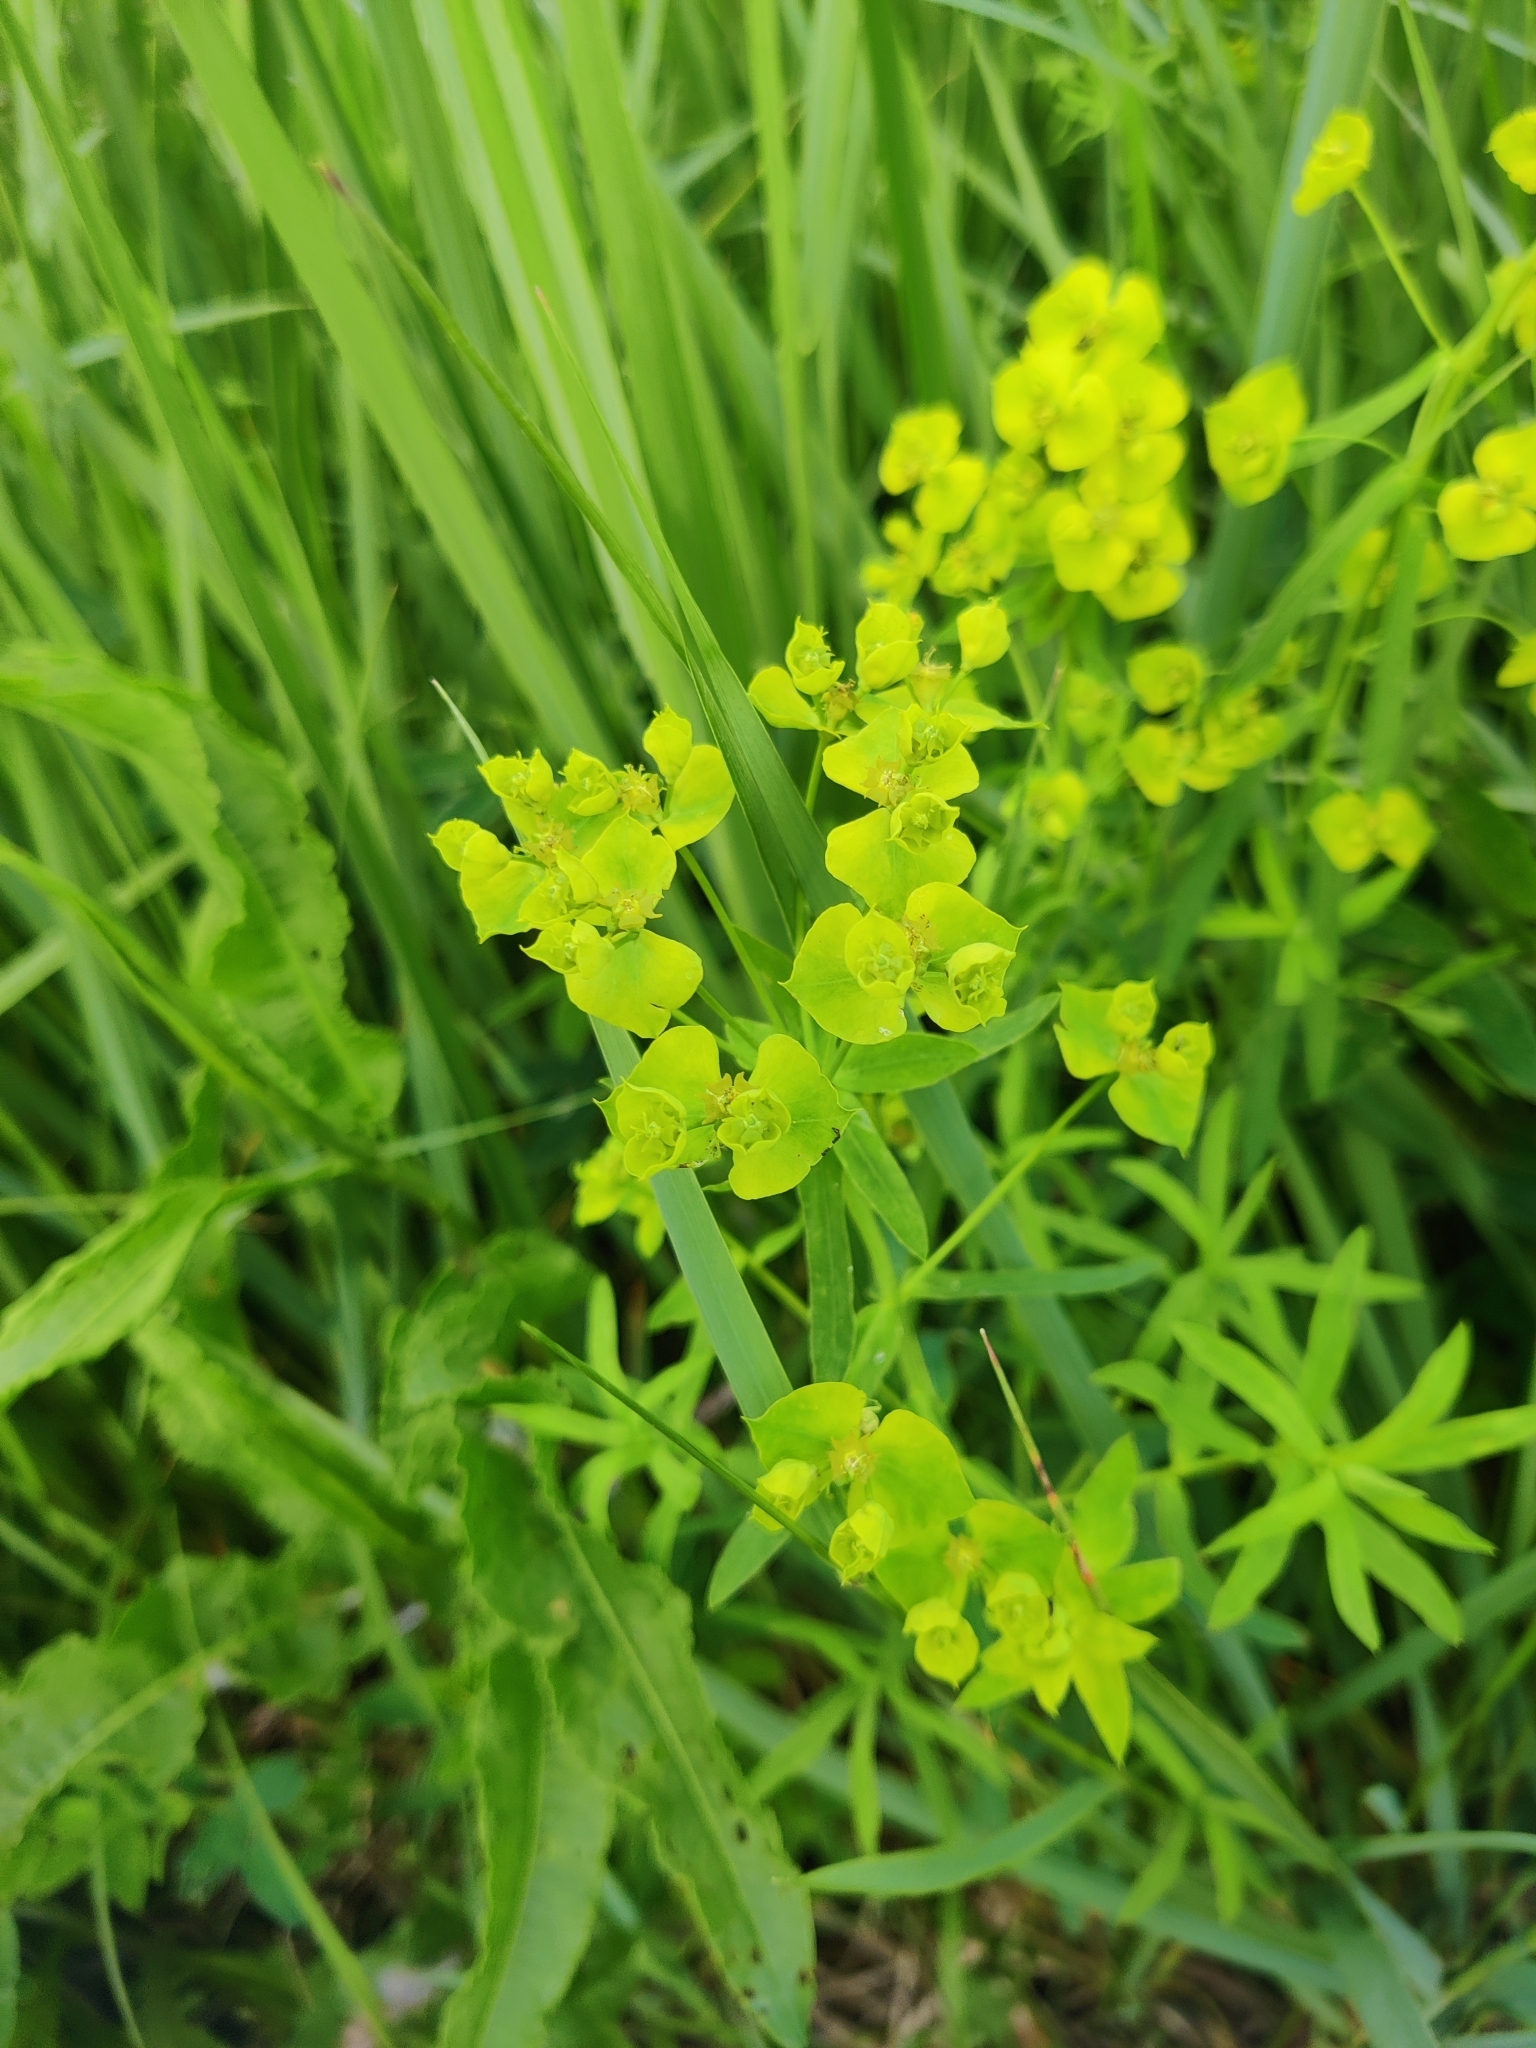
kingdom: Plantae
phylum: Tracheophyta
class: Magnoliopsida
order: Malpighiales
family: Euphorbiaceae
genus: Euphorbia
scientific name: Euphorbia virgata
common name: Leafy spurge
